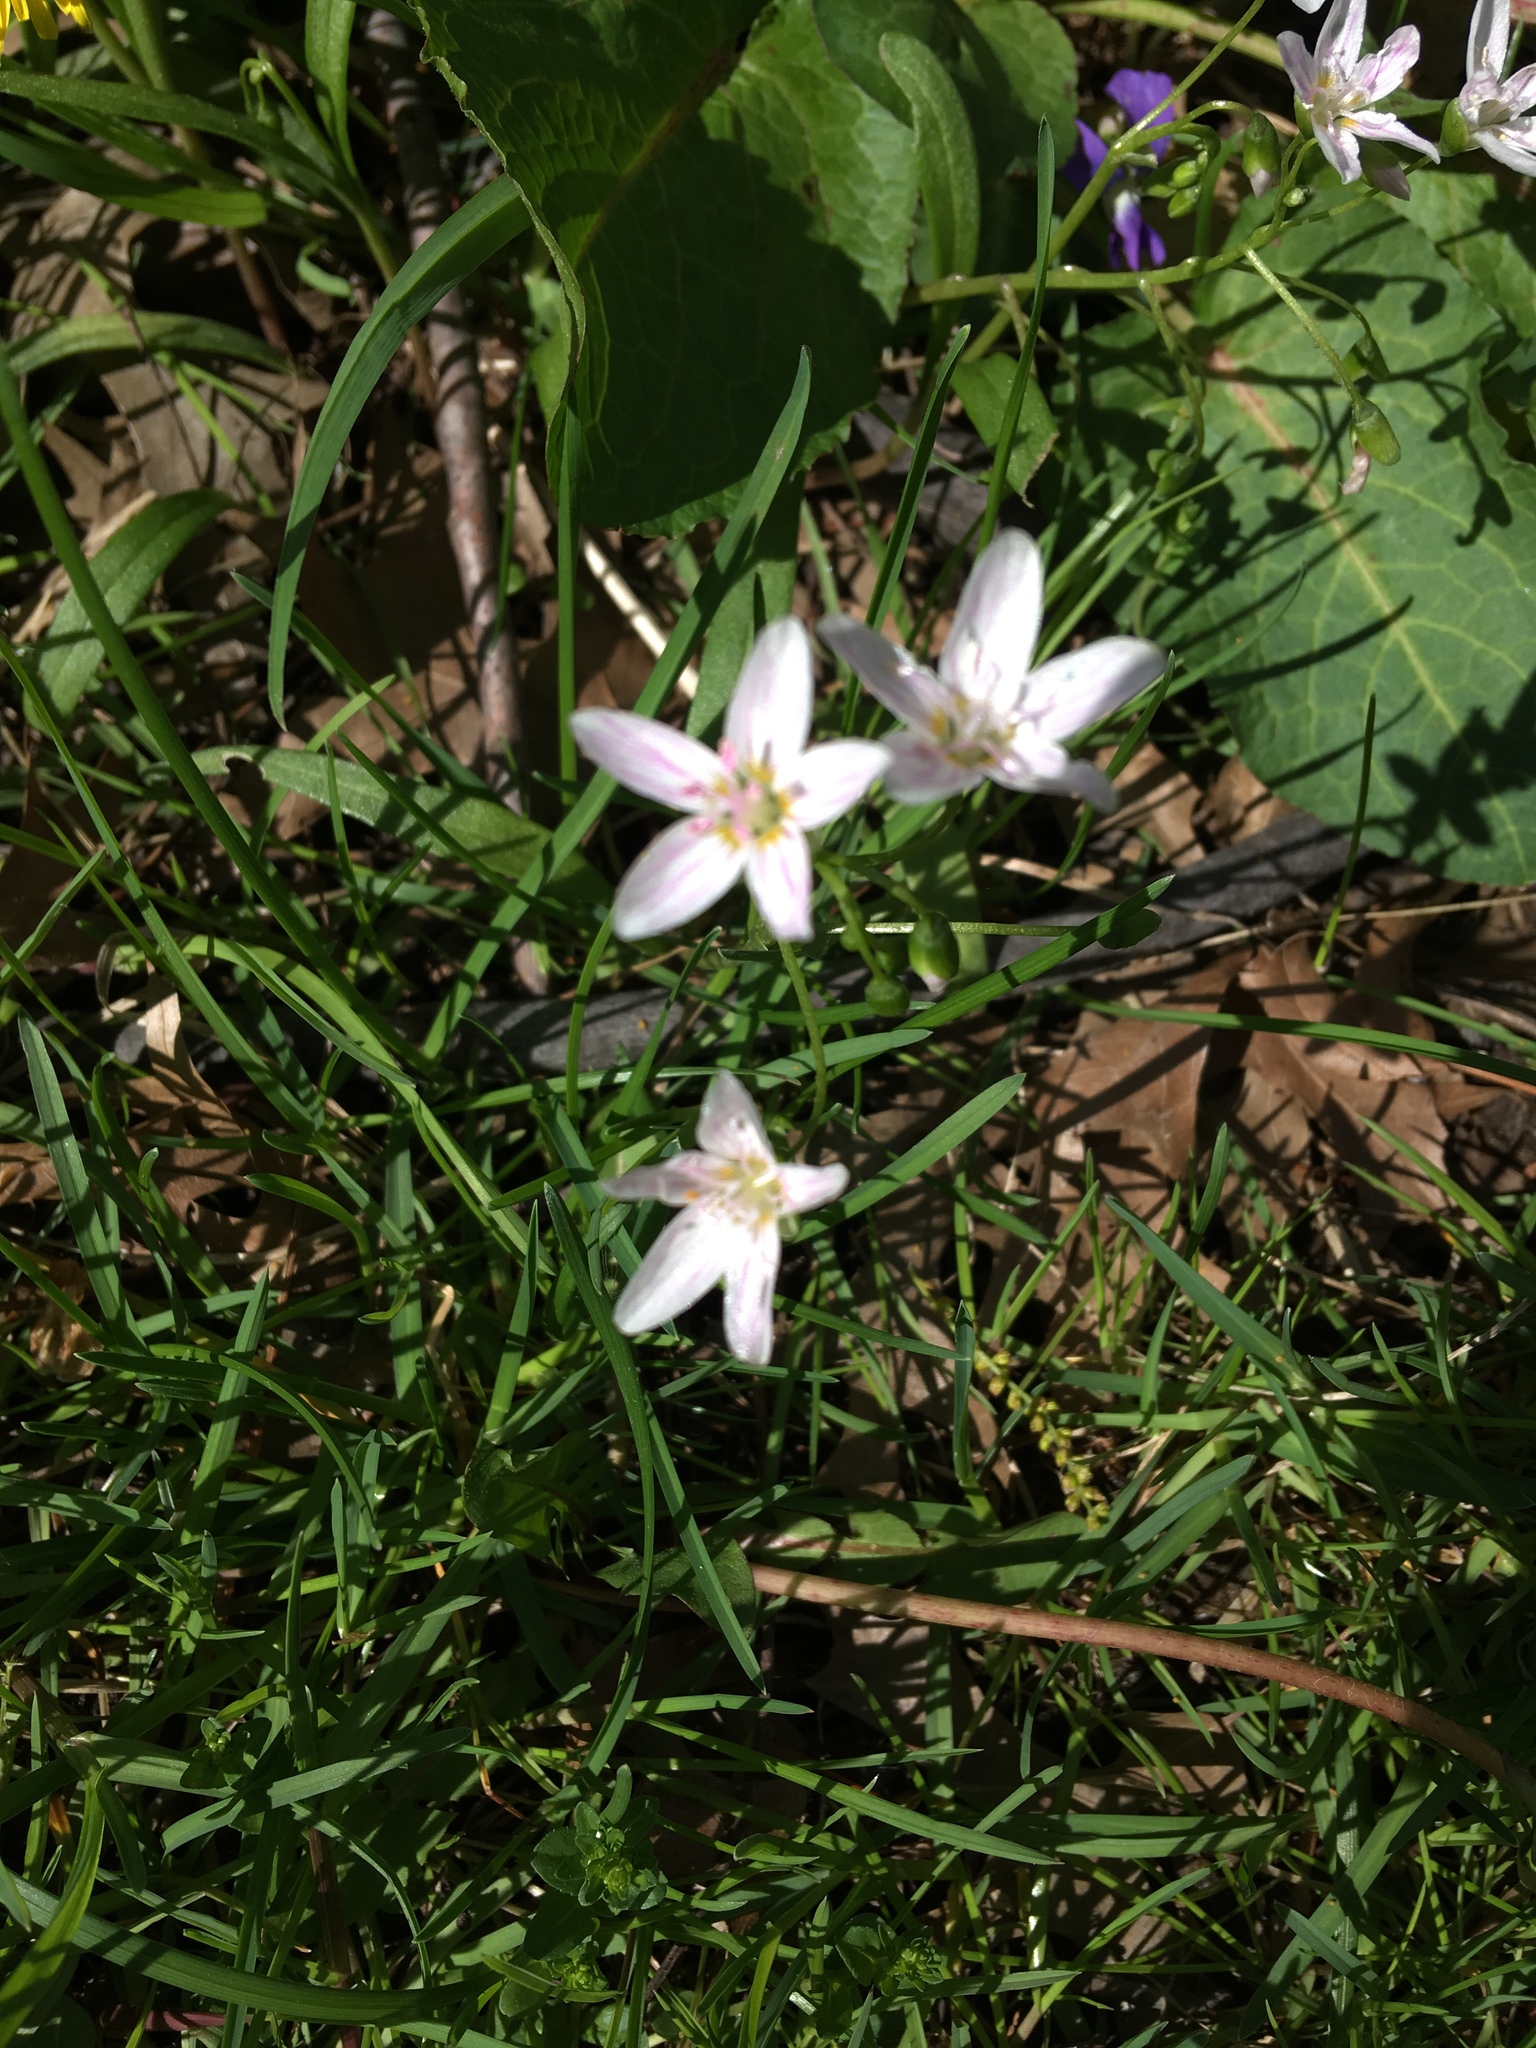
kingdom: Plantae
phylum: Tracheophyta
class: Magnoliopsida
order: Caryophyllales
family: Montiaceae
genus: Claytonia
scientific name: Claytonia virginica
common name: Virginia springbeauty
